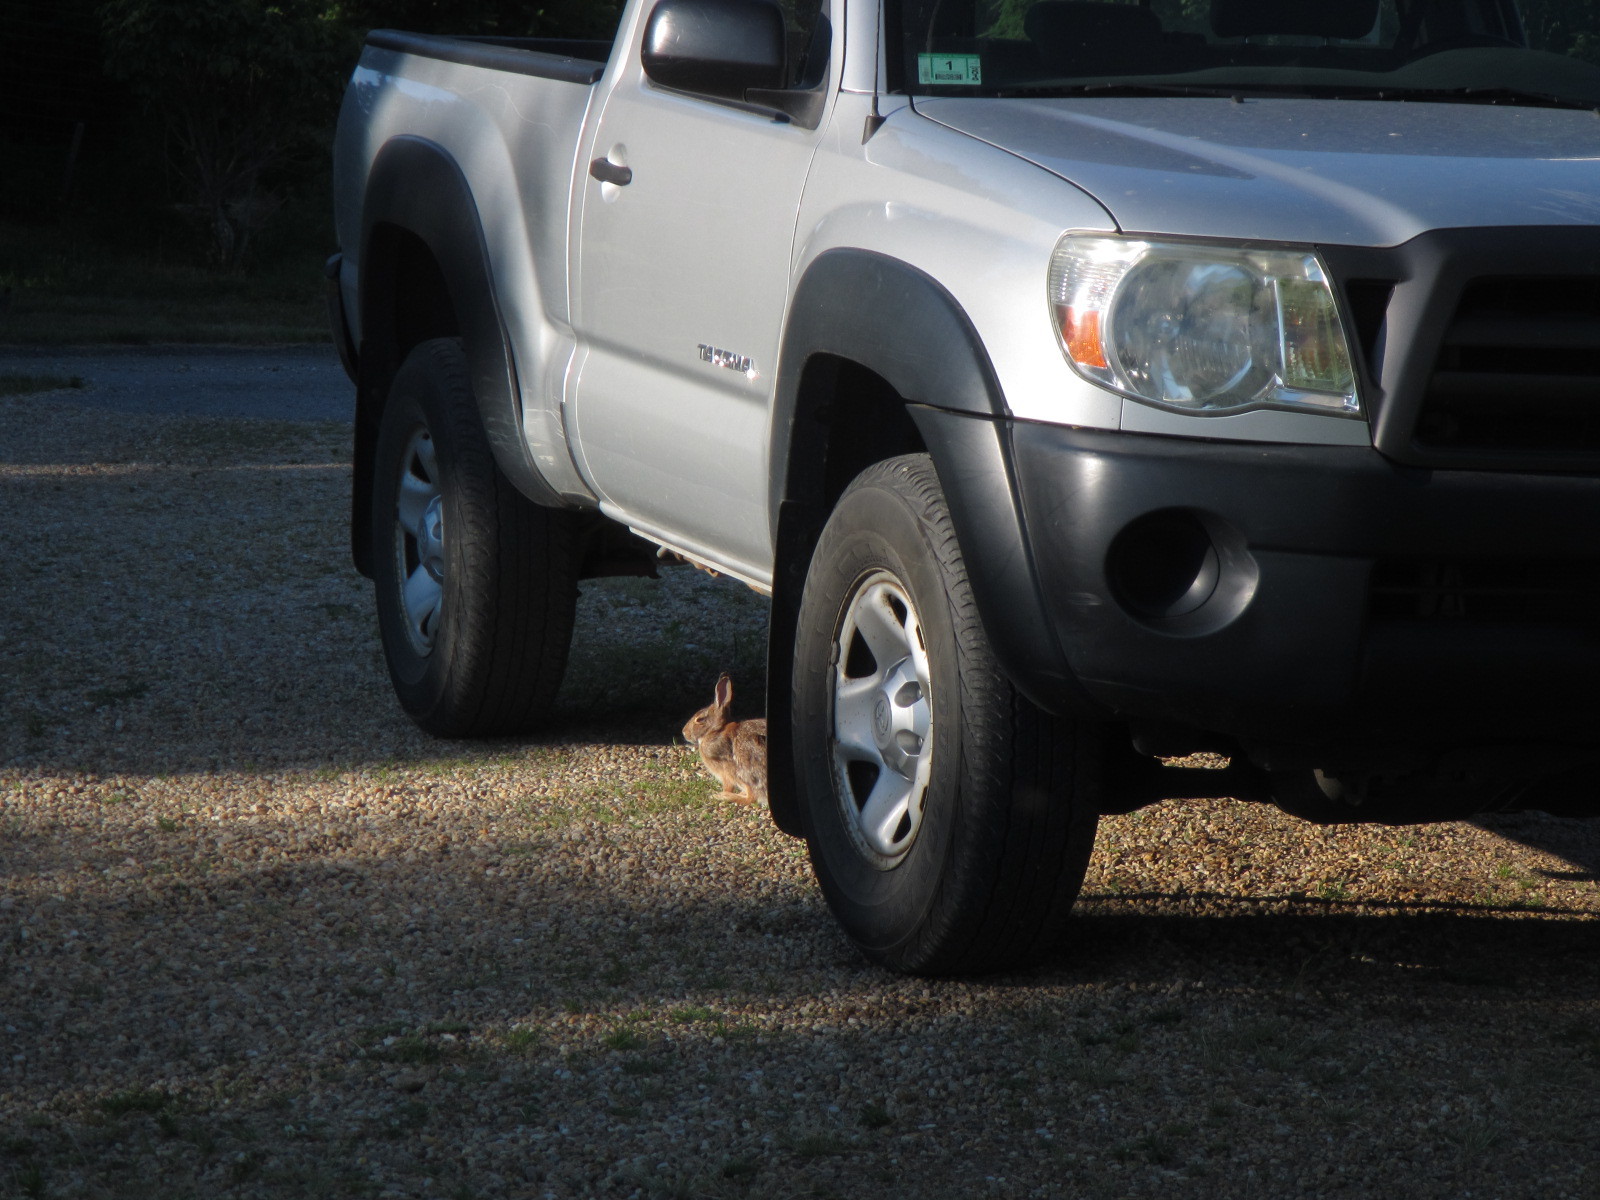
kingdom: Animalia
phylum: Chordata
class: Mammalia
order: Lagomorpha
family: Leporidae
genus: Sylvilagus
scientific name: Sylvilagus floridanus
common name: Eastern cottontail
